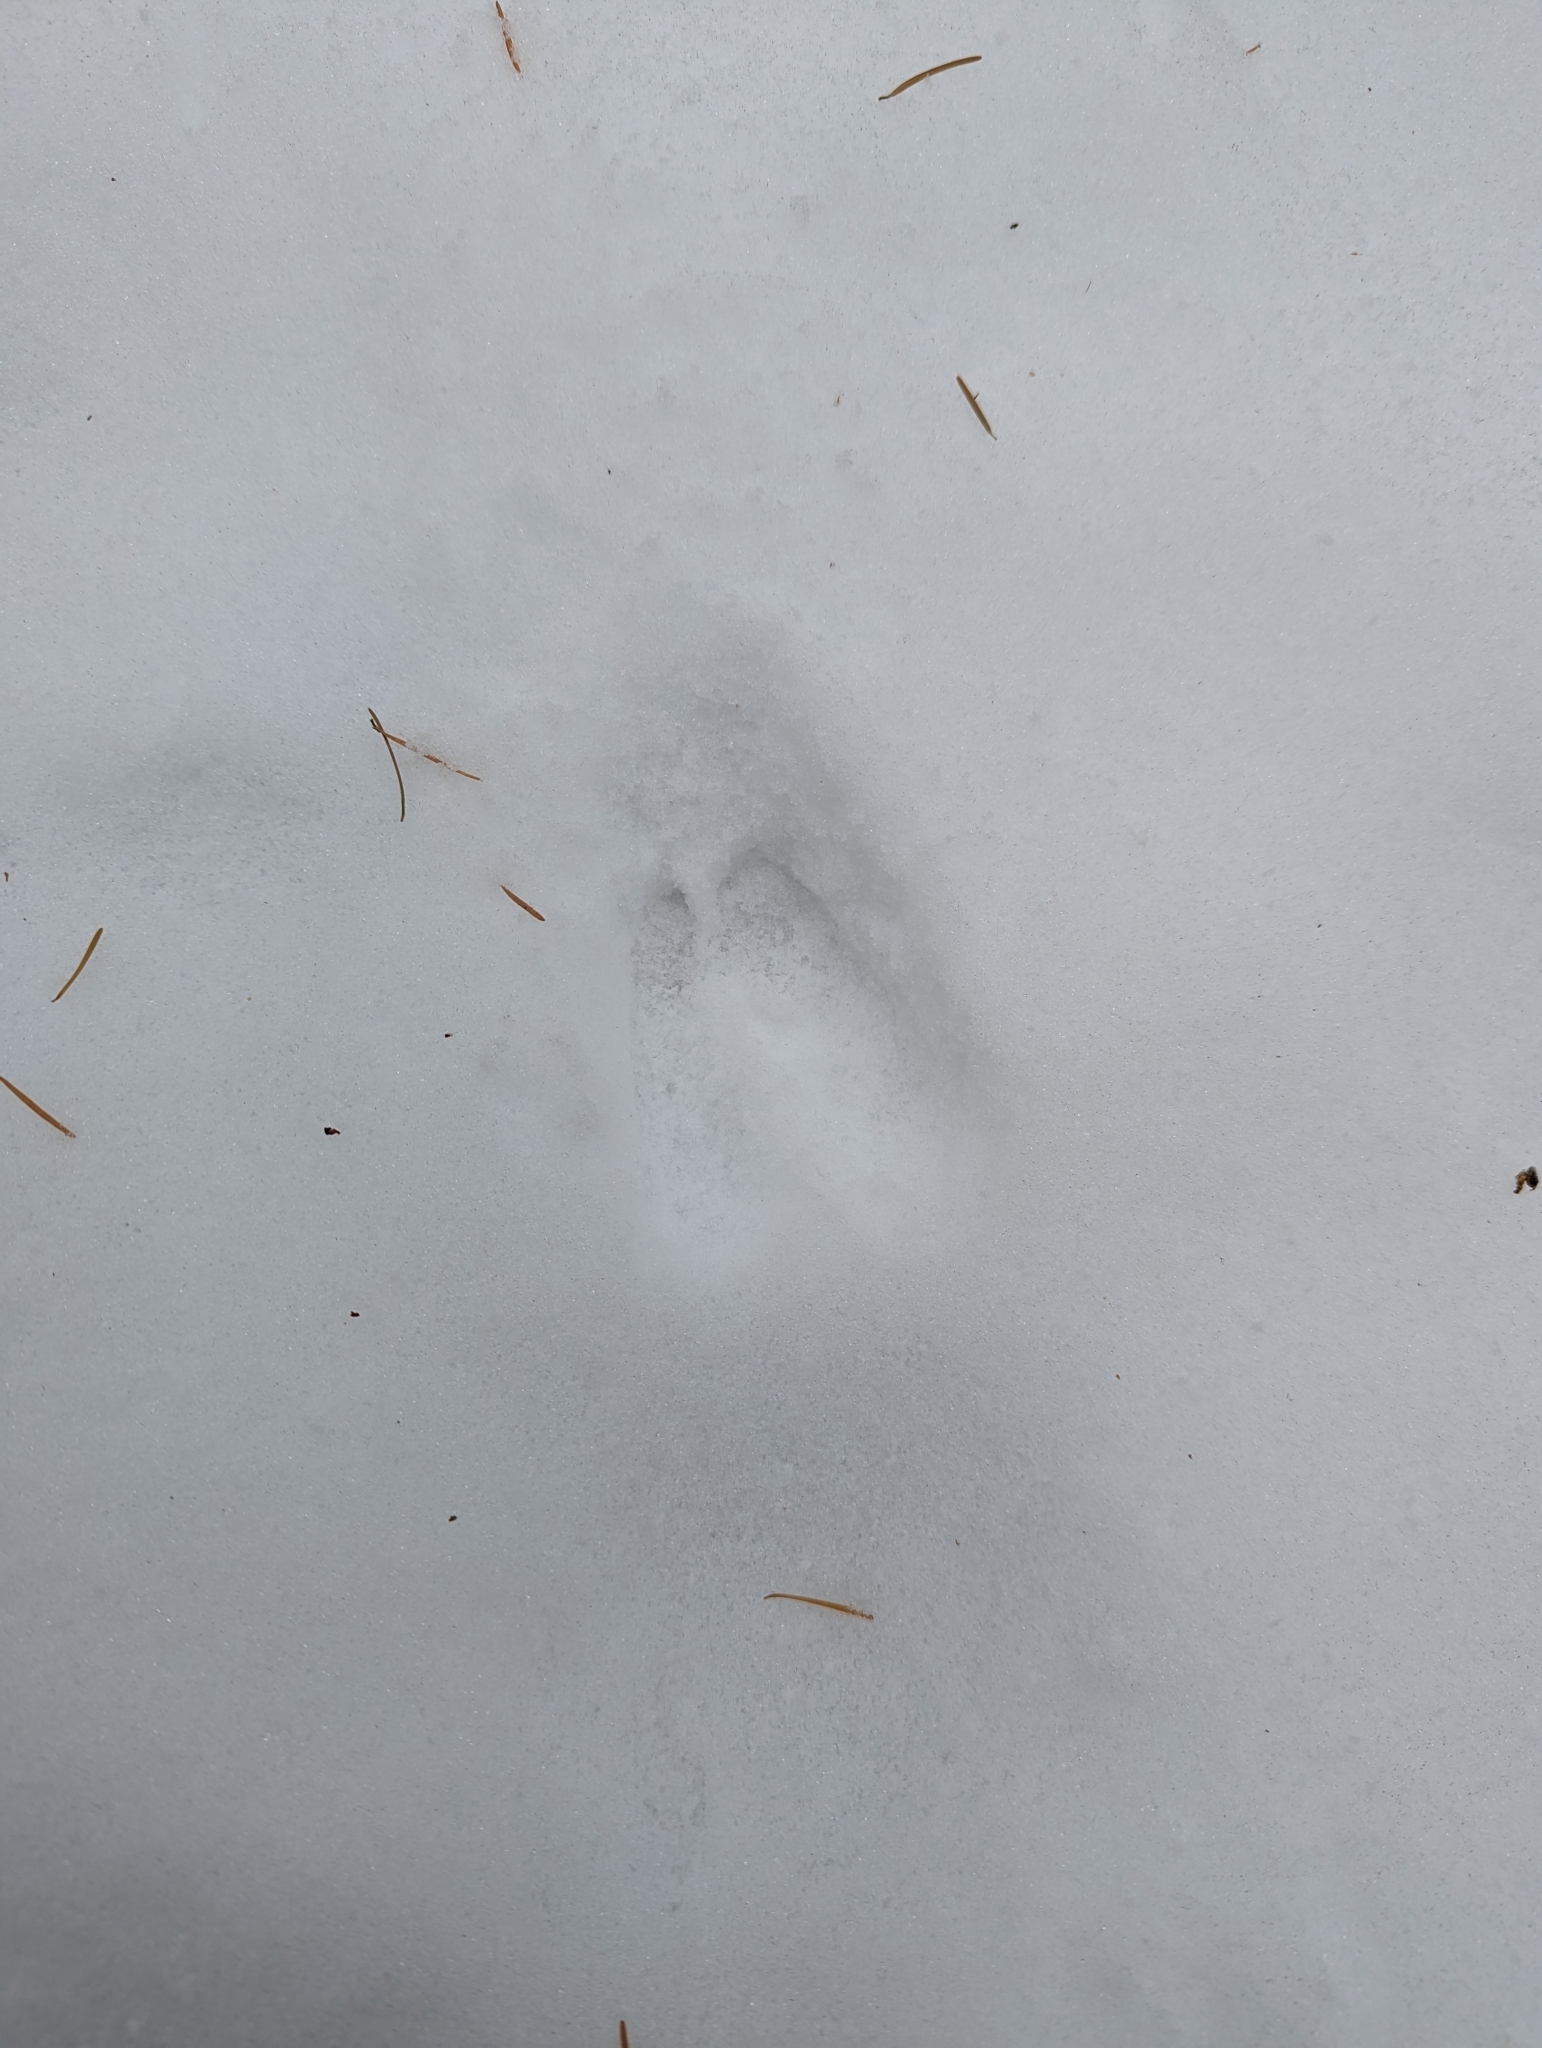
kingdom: Animalia
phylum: Chordata
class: Mammalia
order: Artiodactyla
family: Cervidae
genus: Odocoileus
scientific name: Odocoileus hemionus
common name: Mule deer
